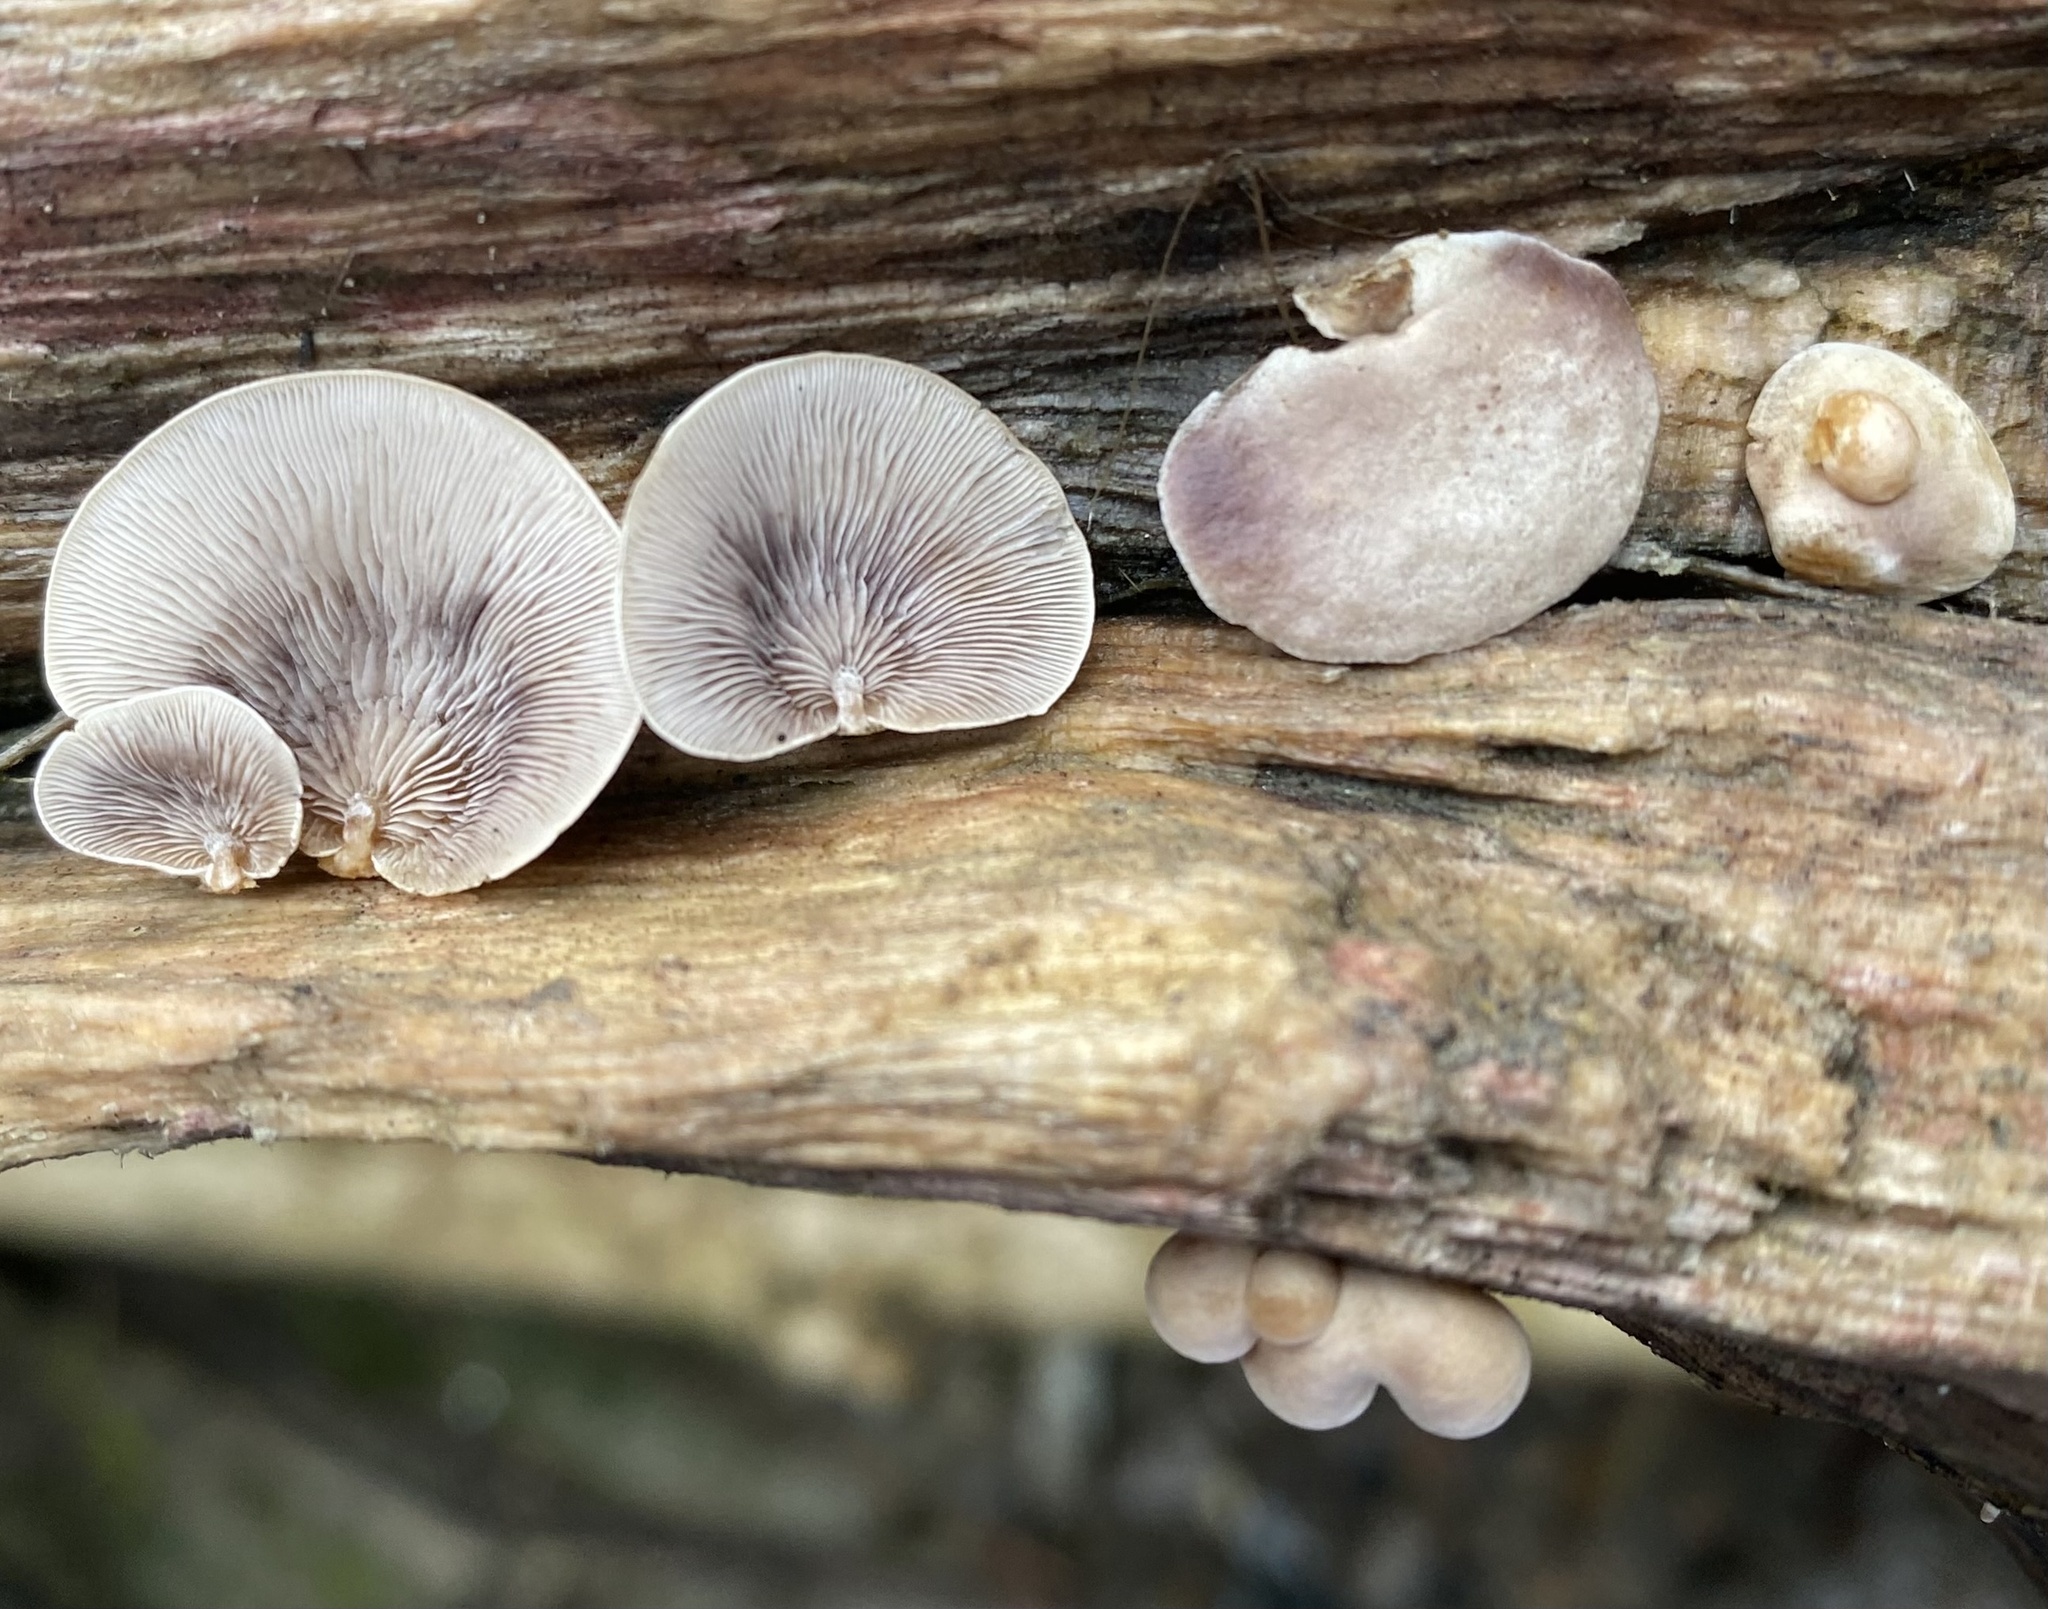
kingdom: Fungi
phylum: Basidiomycota
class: Agaricomycetes
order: Agaricales
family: Strophariaceae
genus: Deconica
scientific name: Deconica horizontalis
